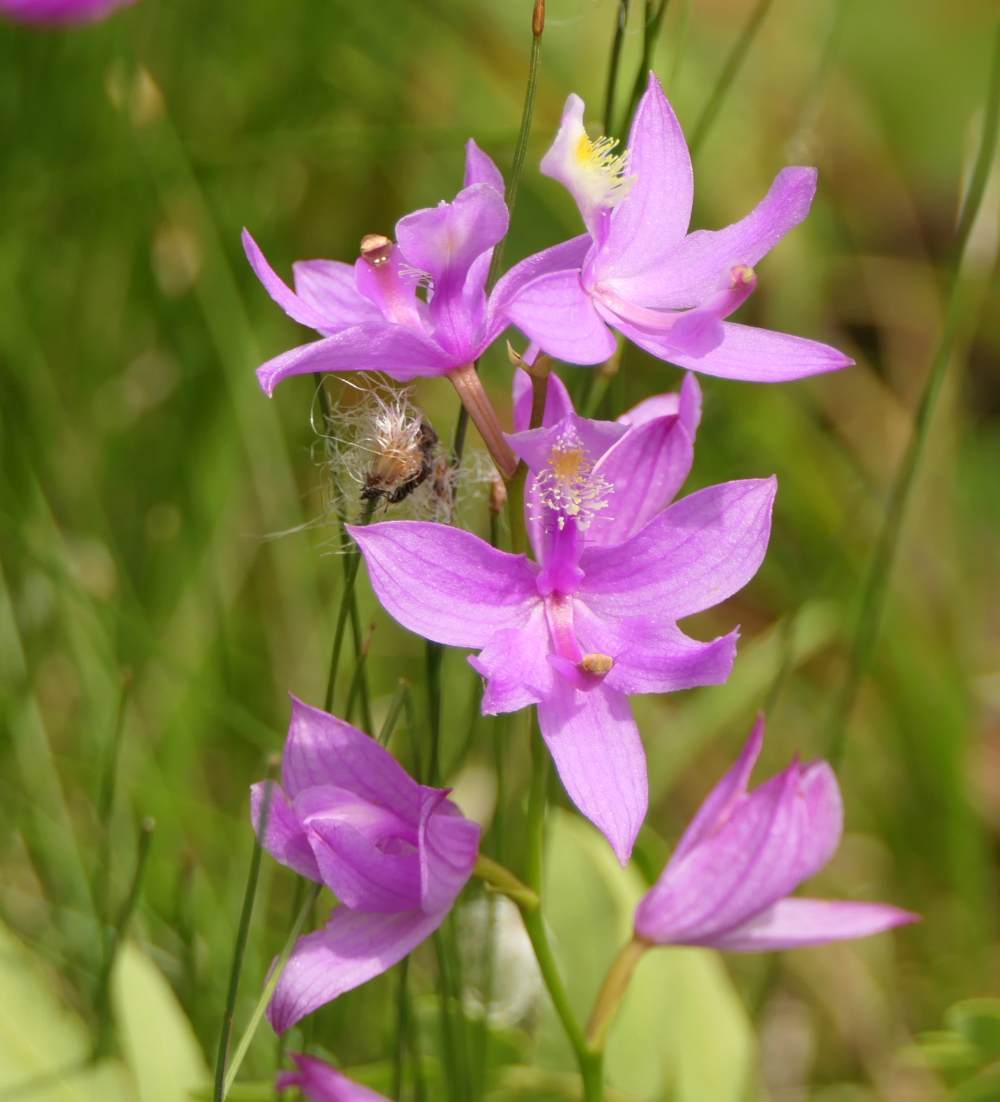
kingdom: Plantae
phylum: Tracheophyta
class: Liliopsida
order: Asparagales
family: Orchidaceae
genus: Calopogon
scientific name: Calopogon tuberosus
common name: Grass-pink
